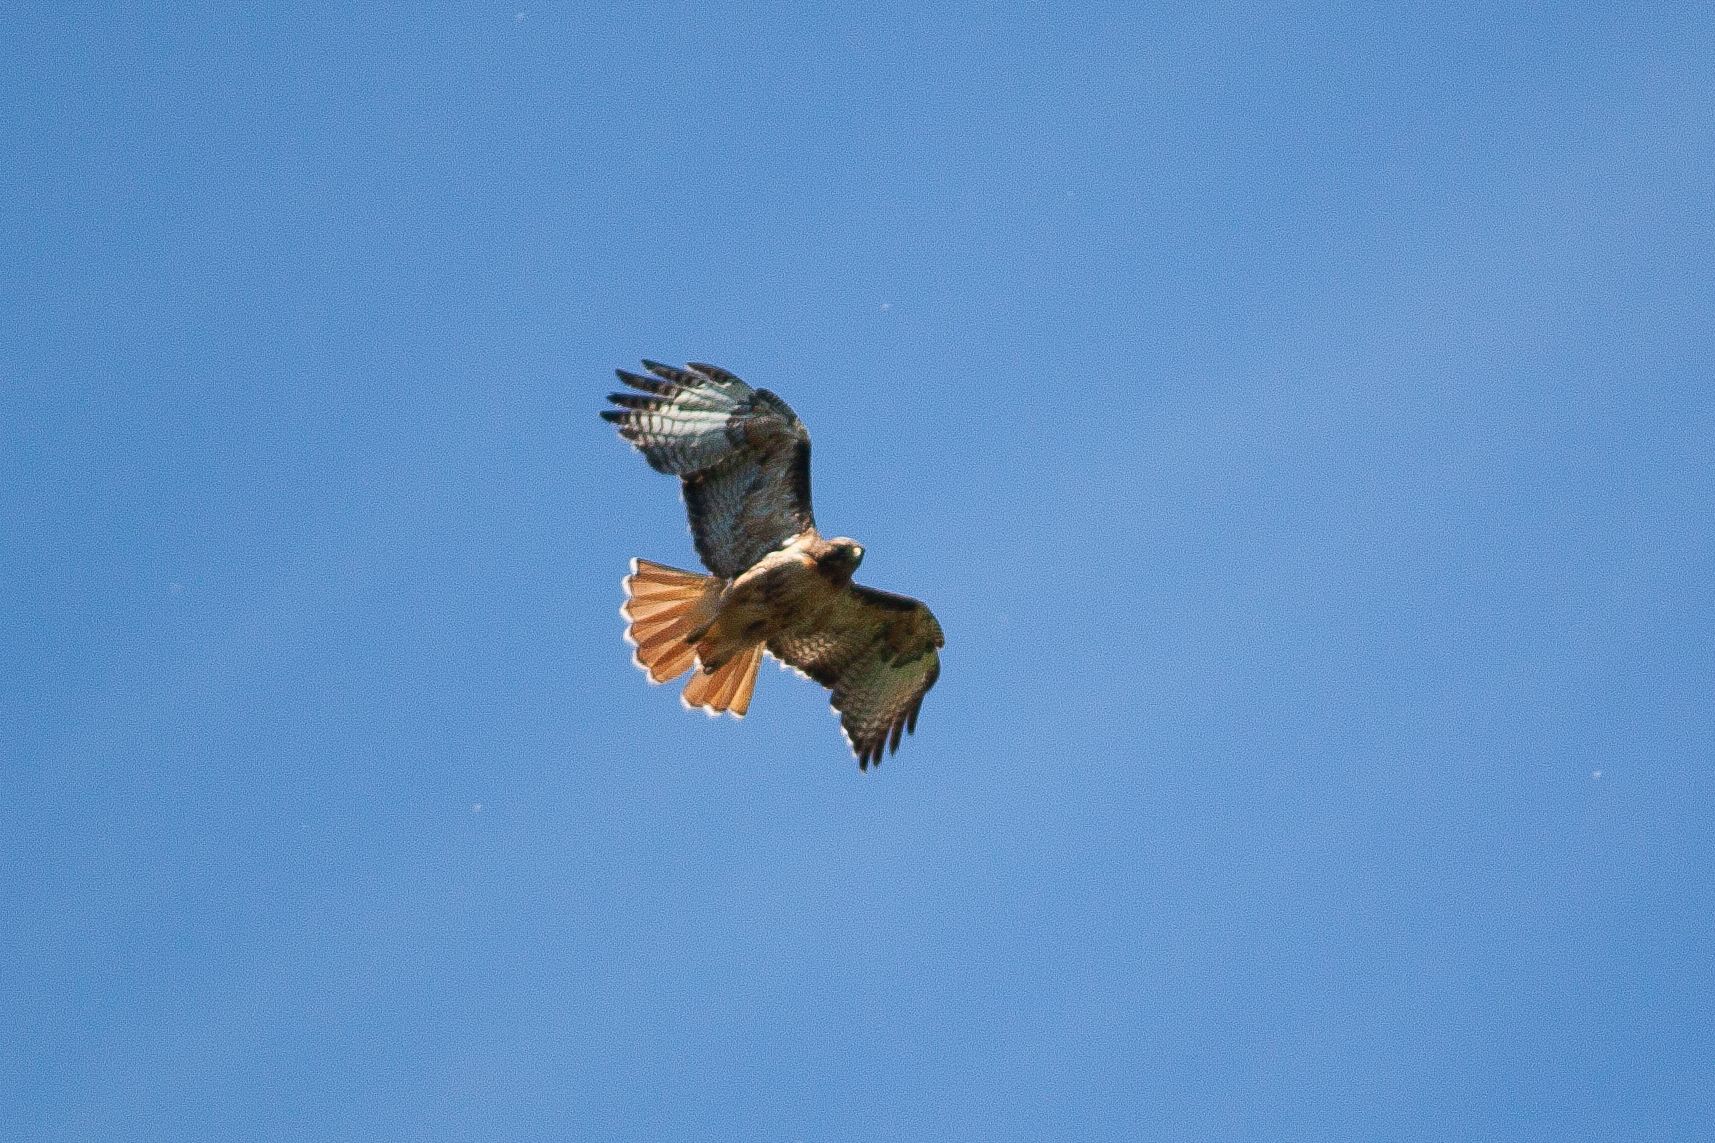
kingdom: Animalia
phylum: Chordata
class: Aves
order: Accipitriformes
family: Accipitridae
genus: Buteo
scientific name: Buteo jamaicensis
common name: Red-tailed hawk
